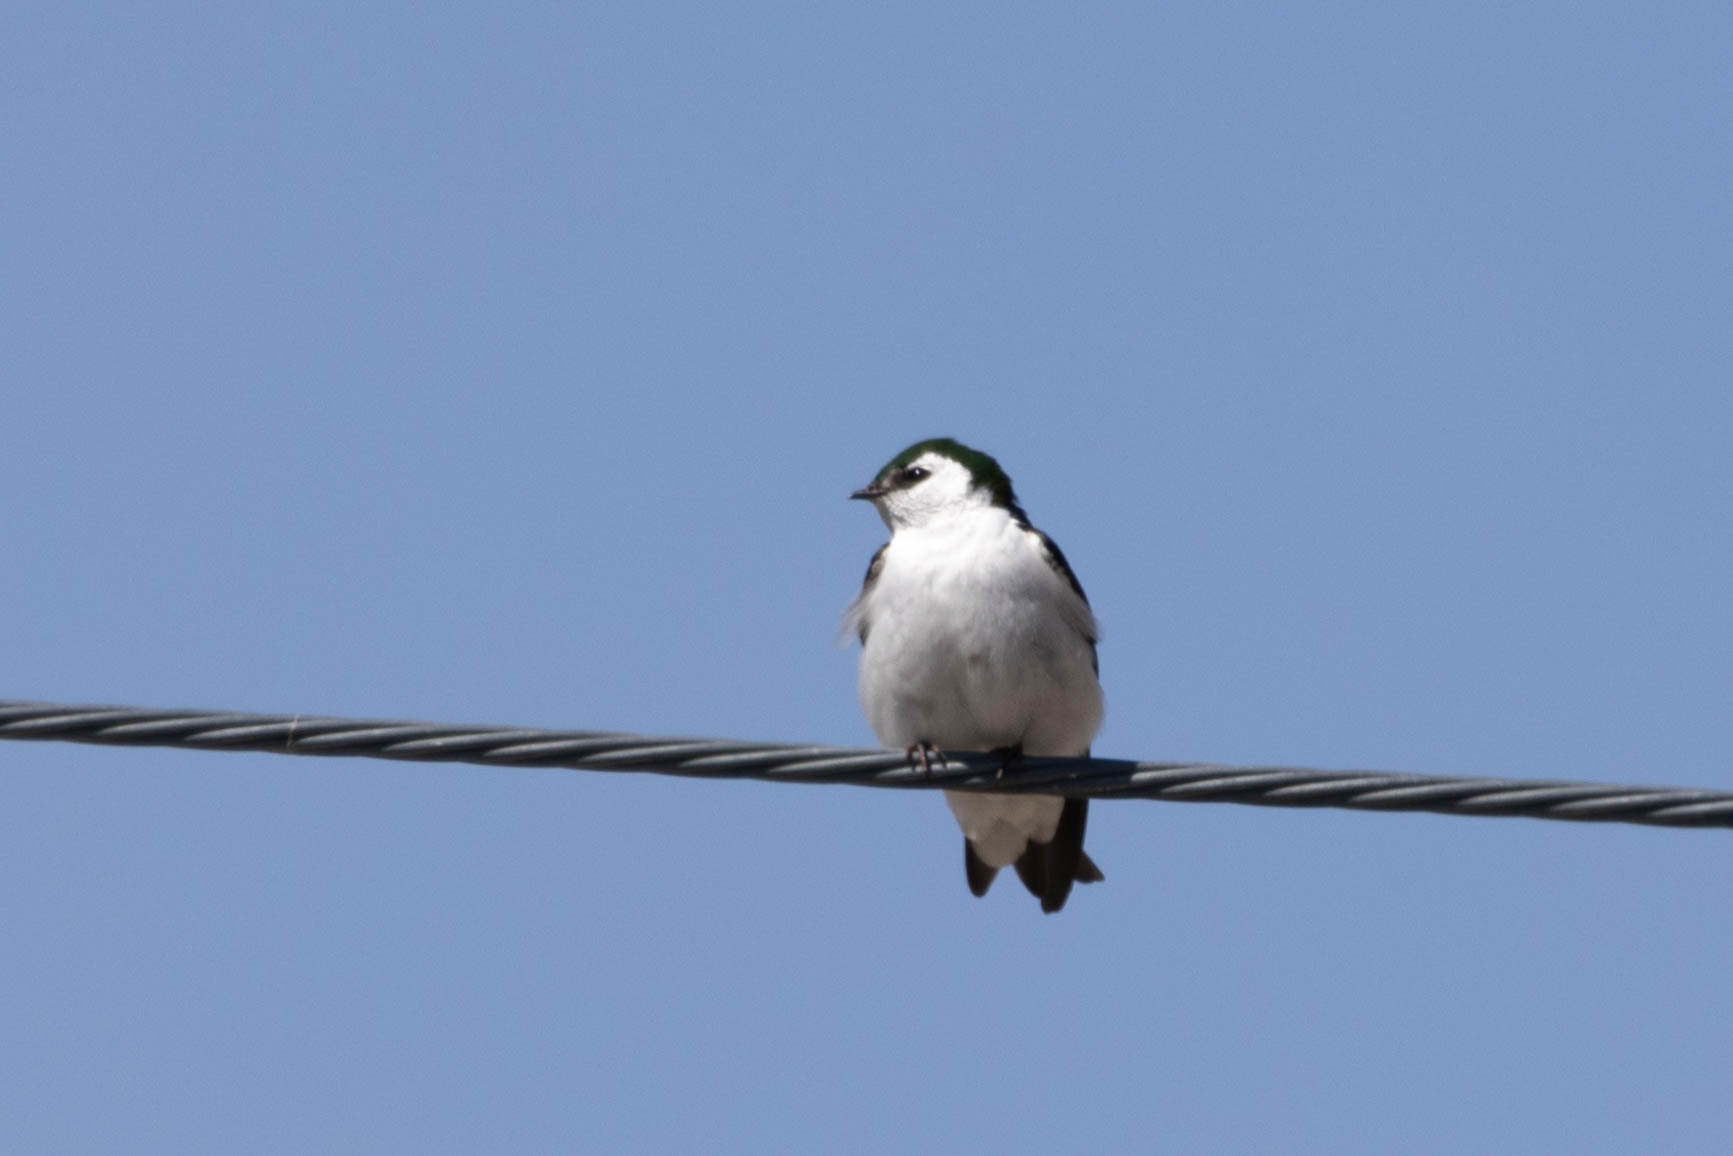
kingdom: Animalia
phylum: Chordata
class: Aves
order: Passeriformes
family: Hirundinidae
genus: Tachycineta
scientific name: Tachycineta thalassina
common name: Violet-green swallow
